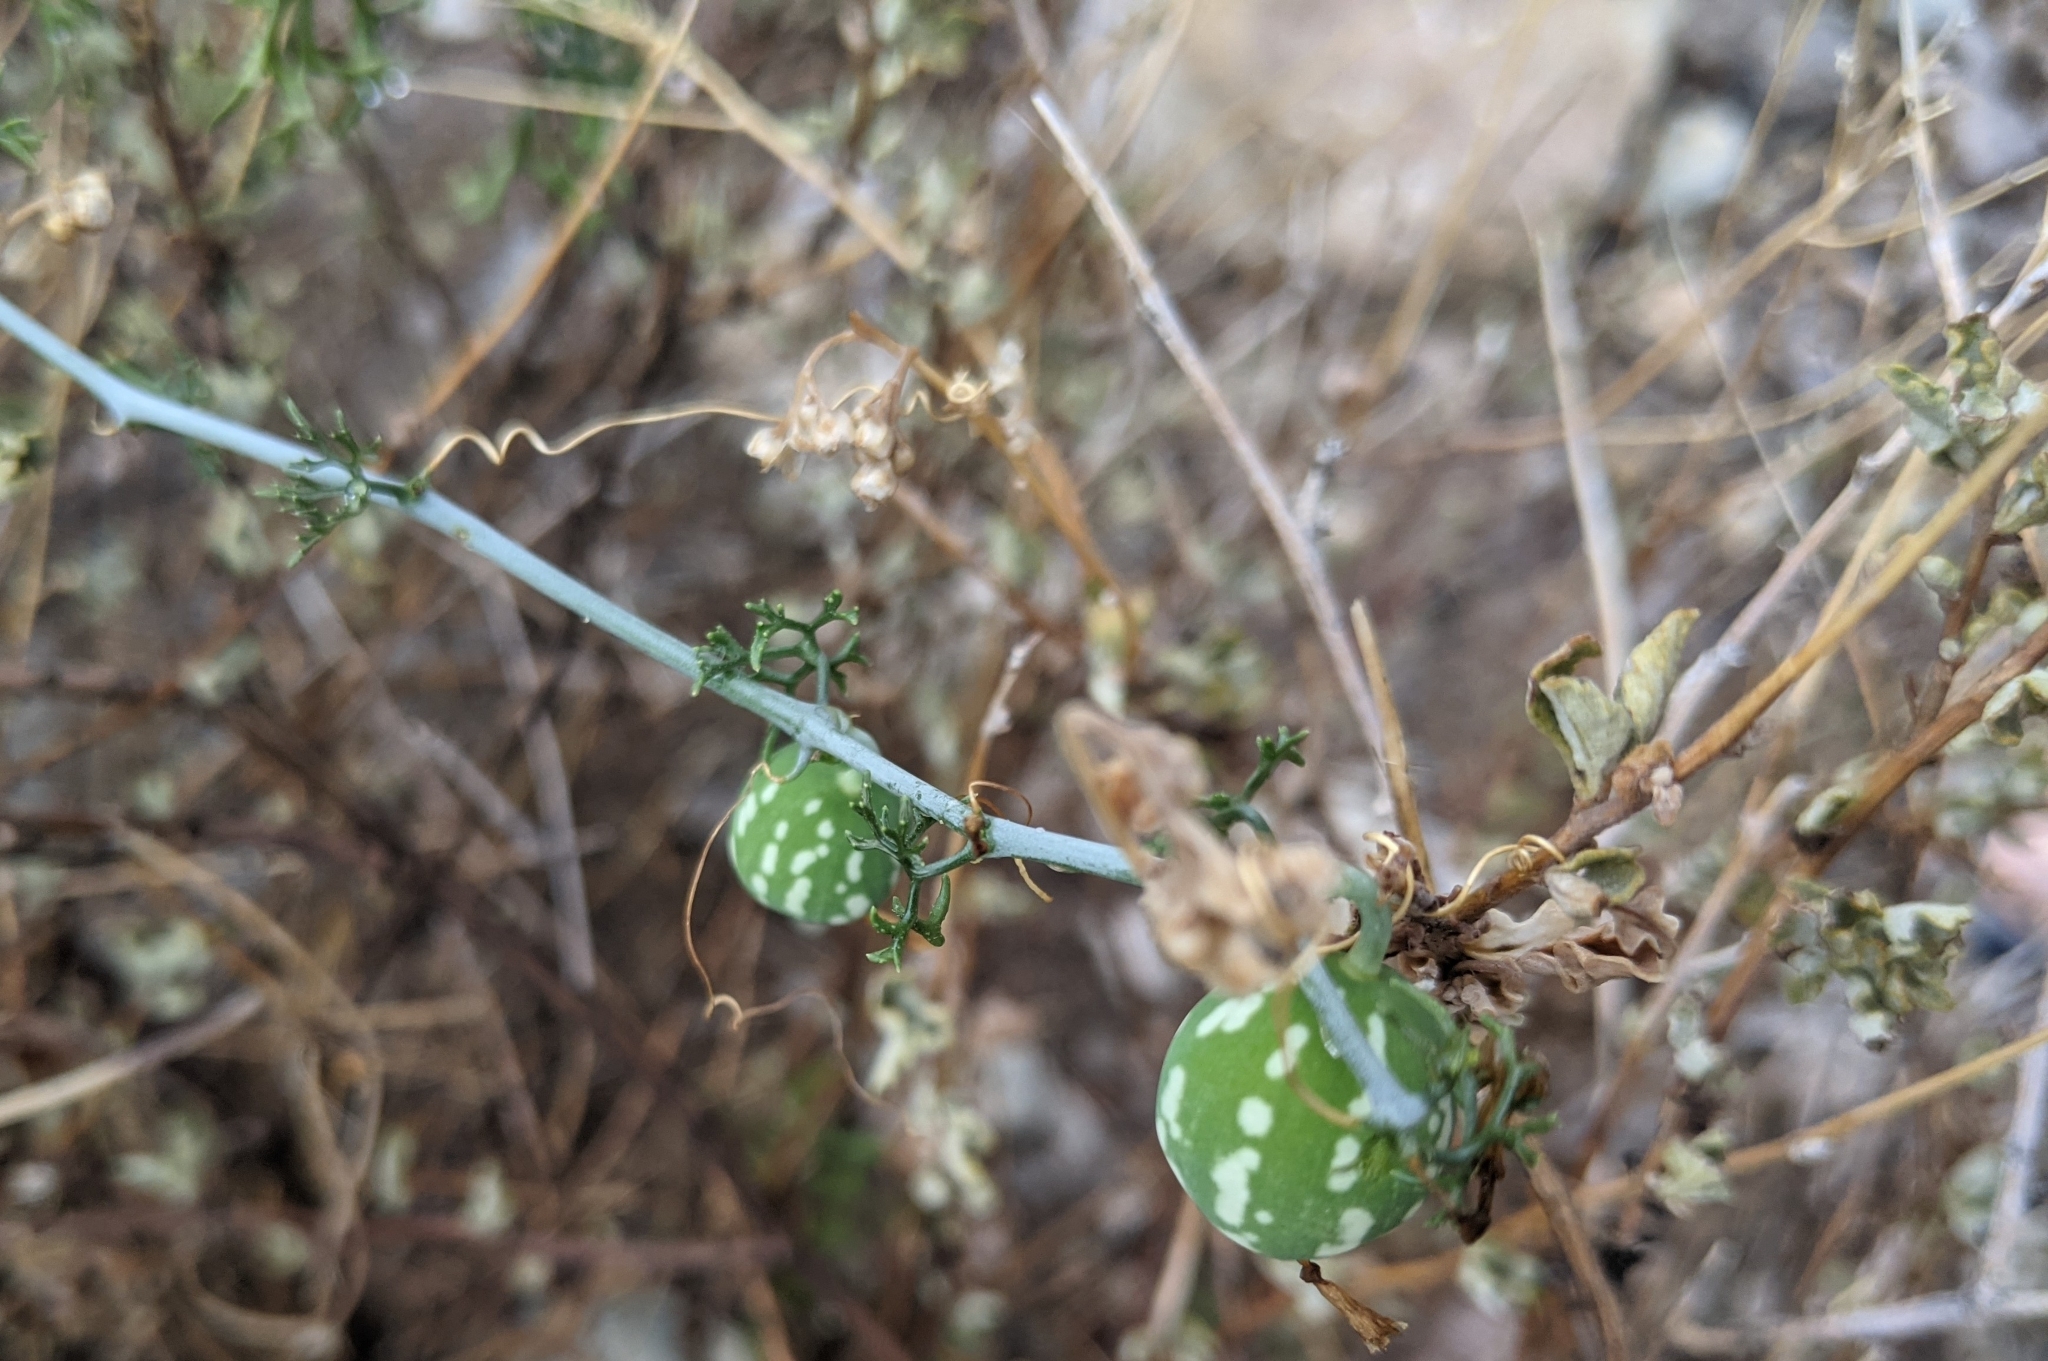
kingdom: Plantae
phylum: Tracheophyta
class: Magnoliopsida
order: Cucurbitales
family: Cucurbitaceae
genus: Ibervillea
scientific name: Ibervillea tenuisecta
